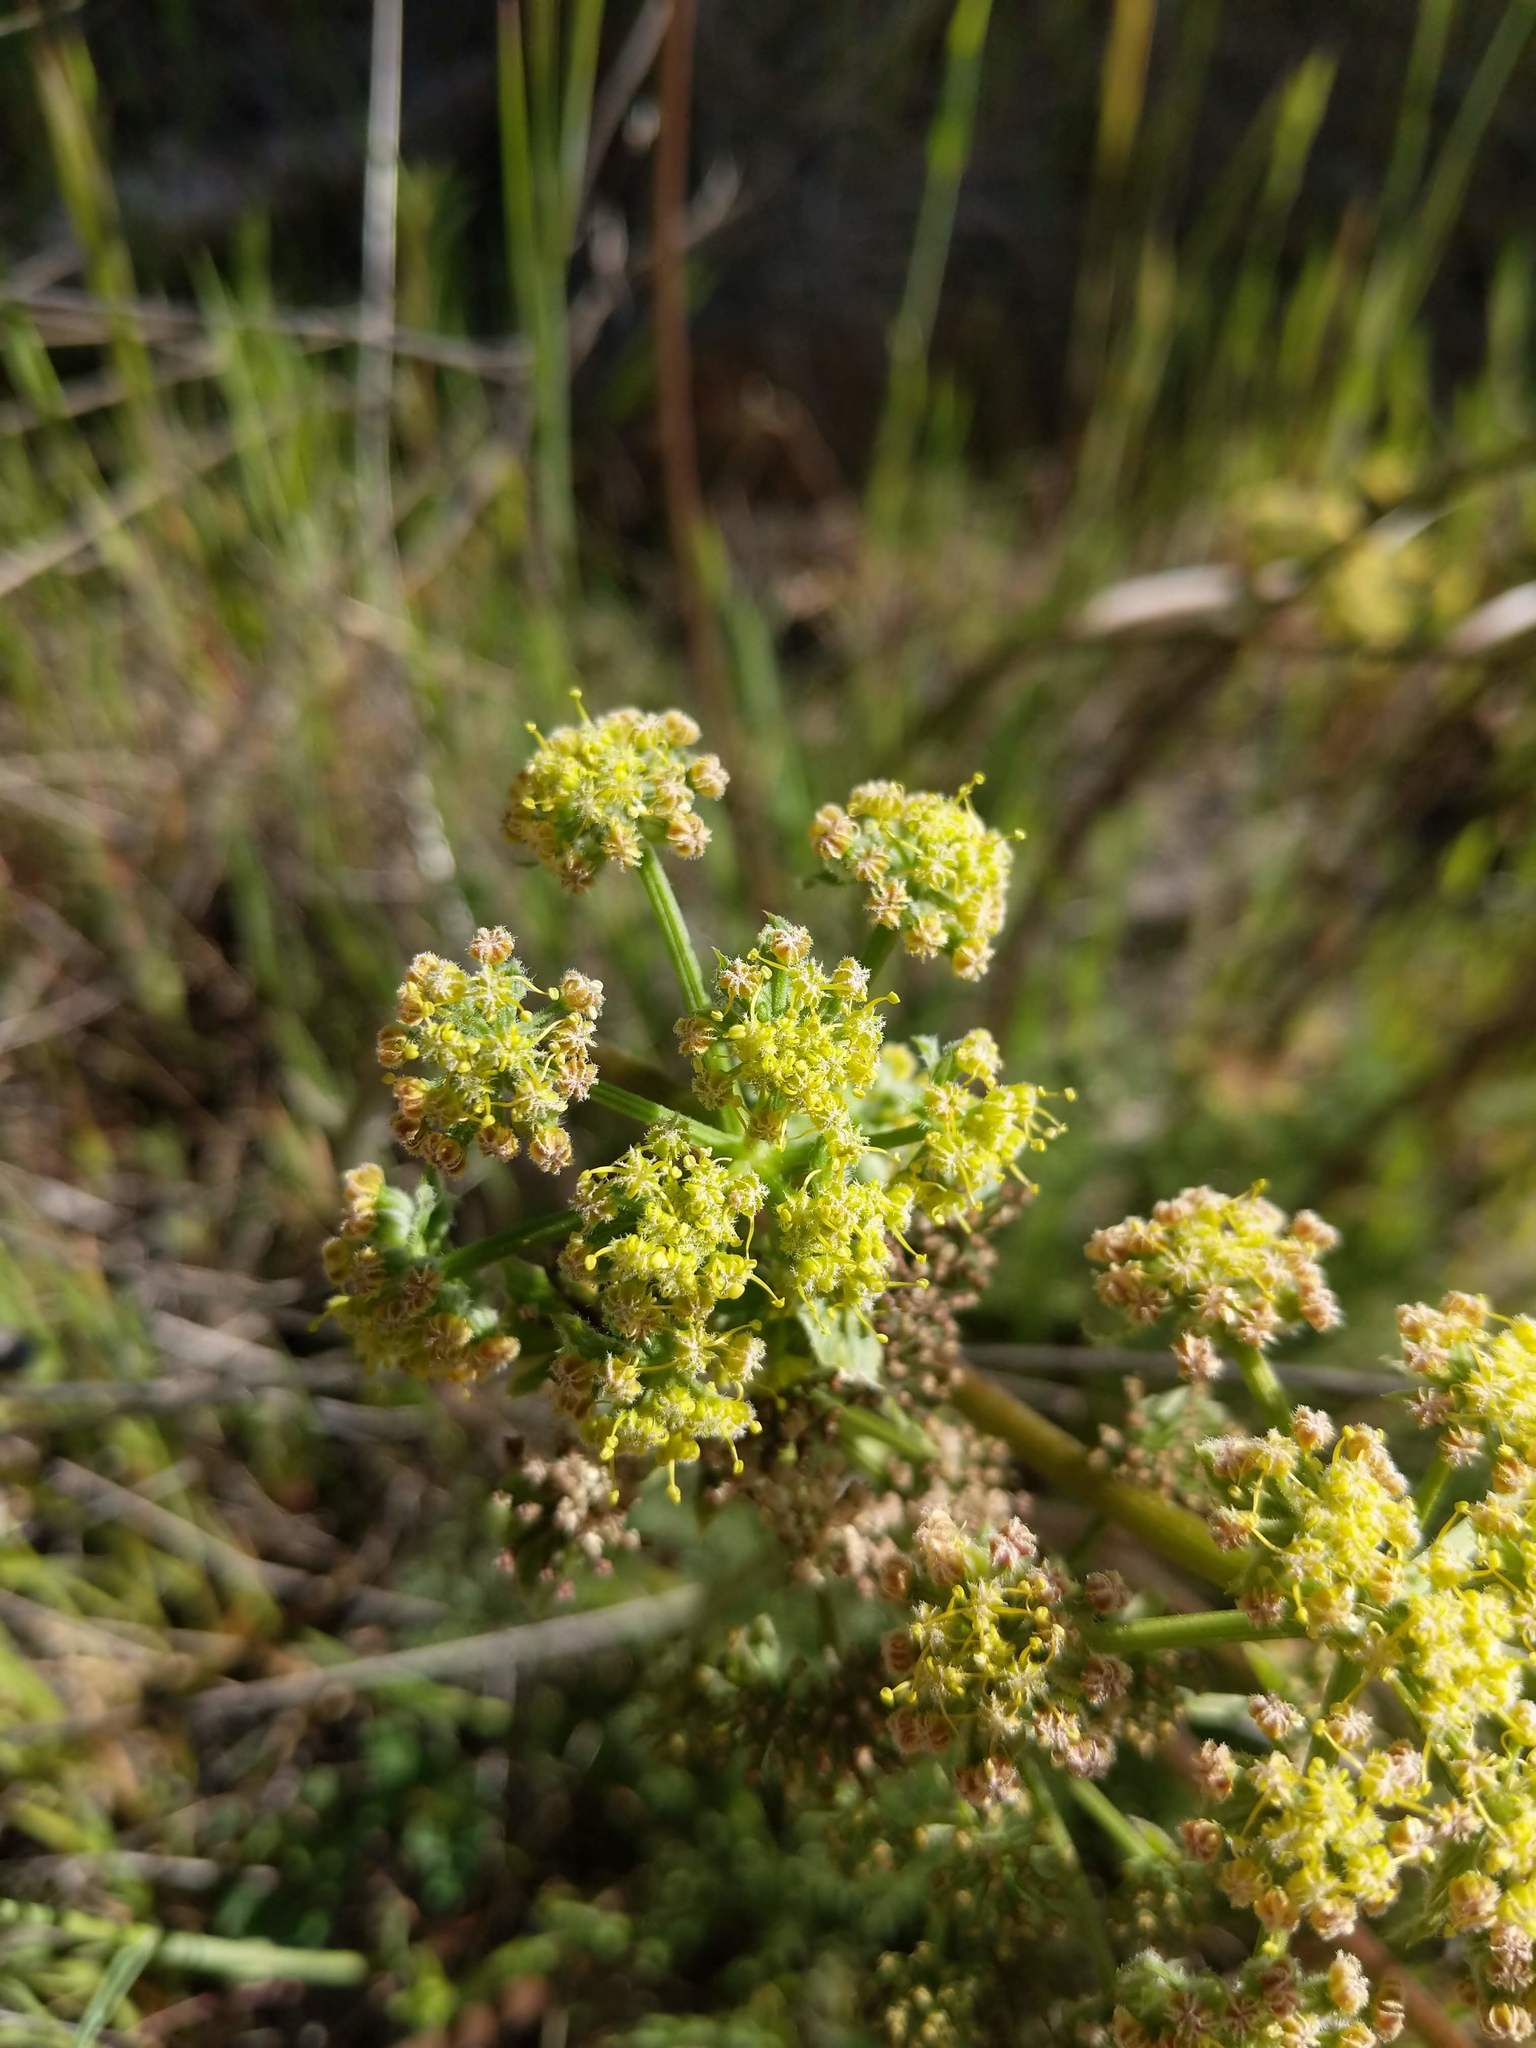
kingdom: Plantae
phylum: Tracheophyta
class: Magnoliopsida
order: Apiales
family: Apiaceae
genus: Lomatium
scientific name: Lomatium dasycarpum
